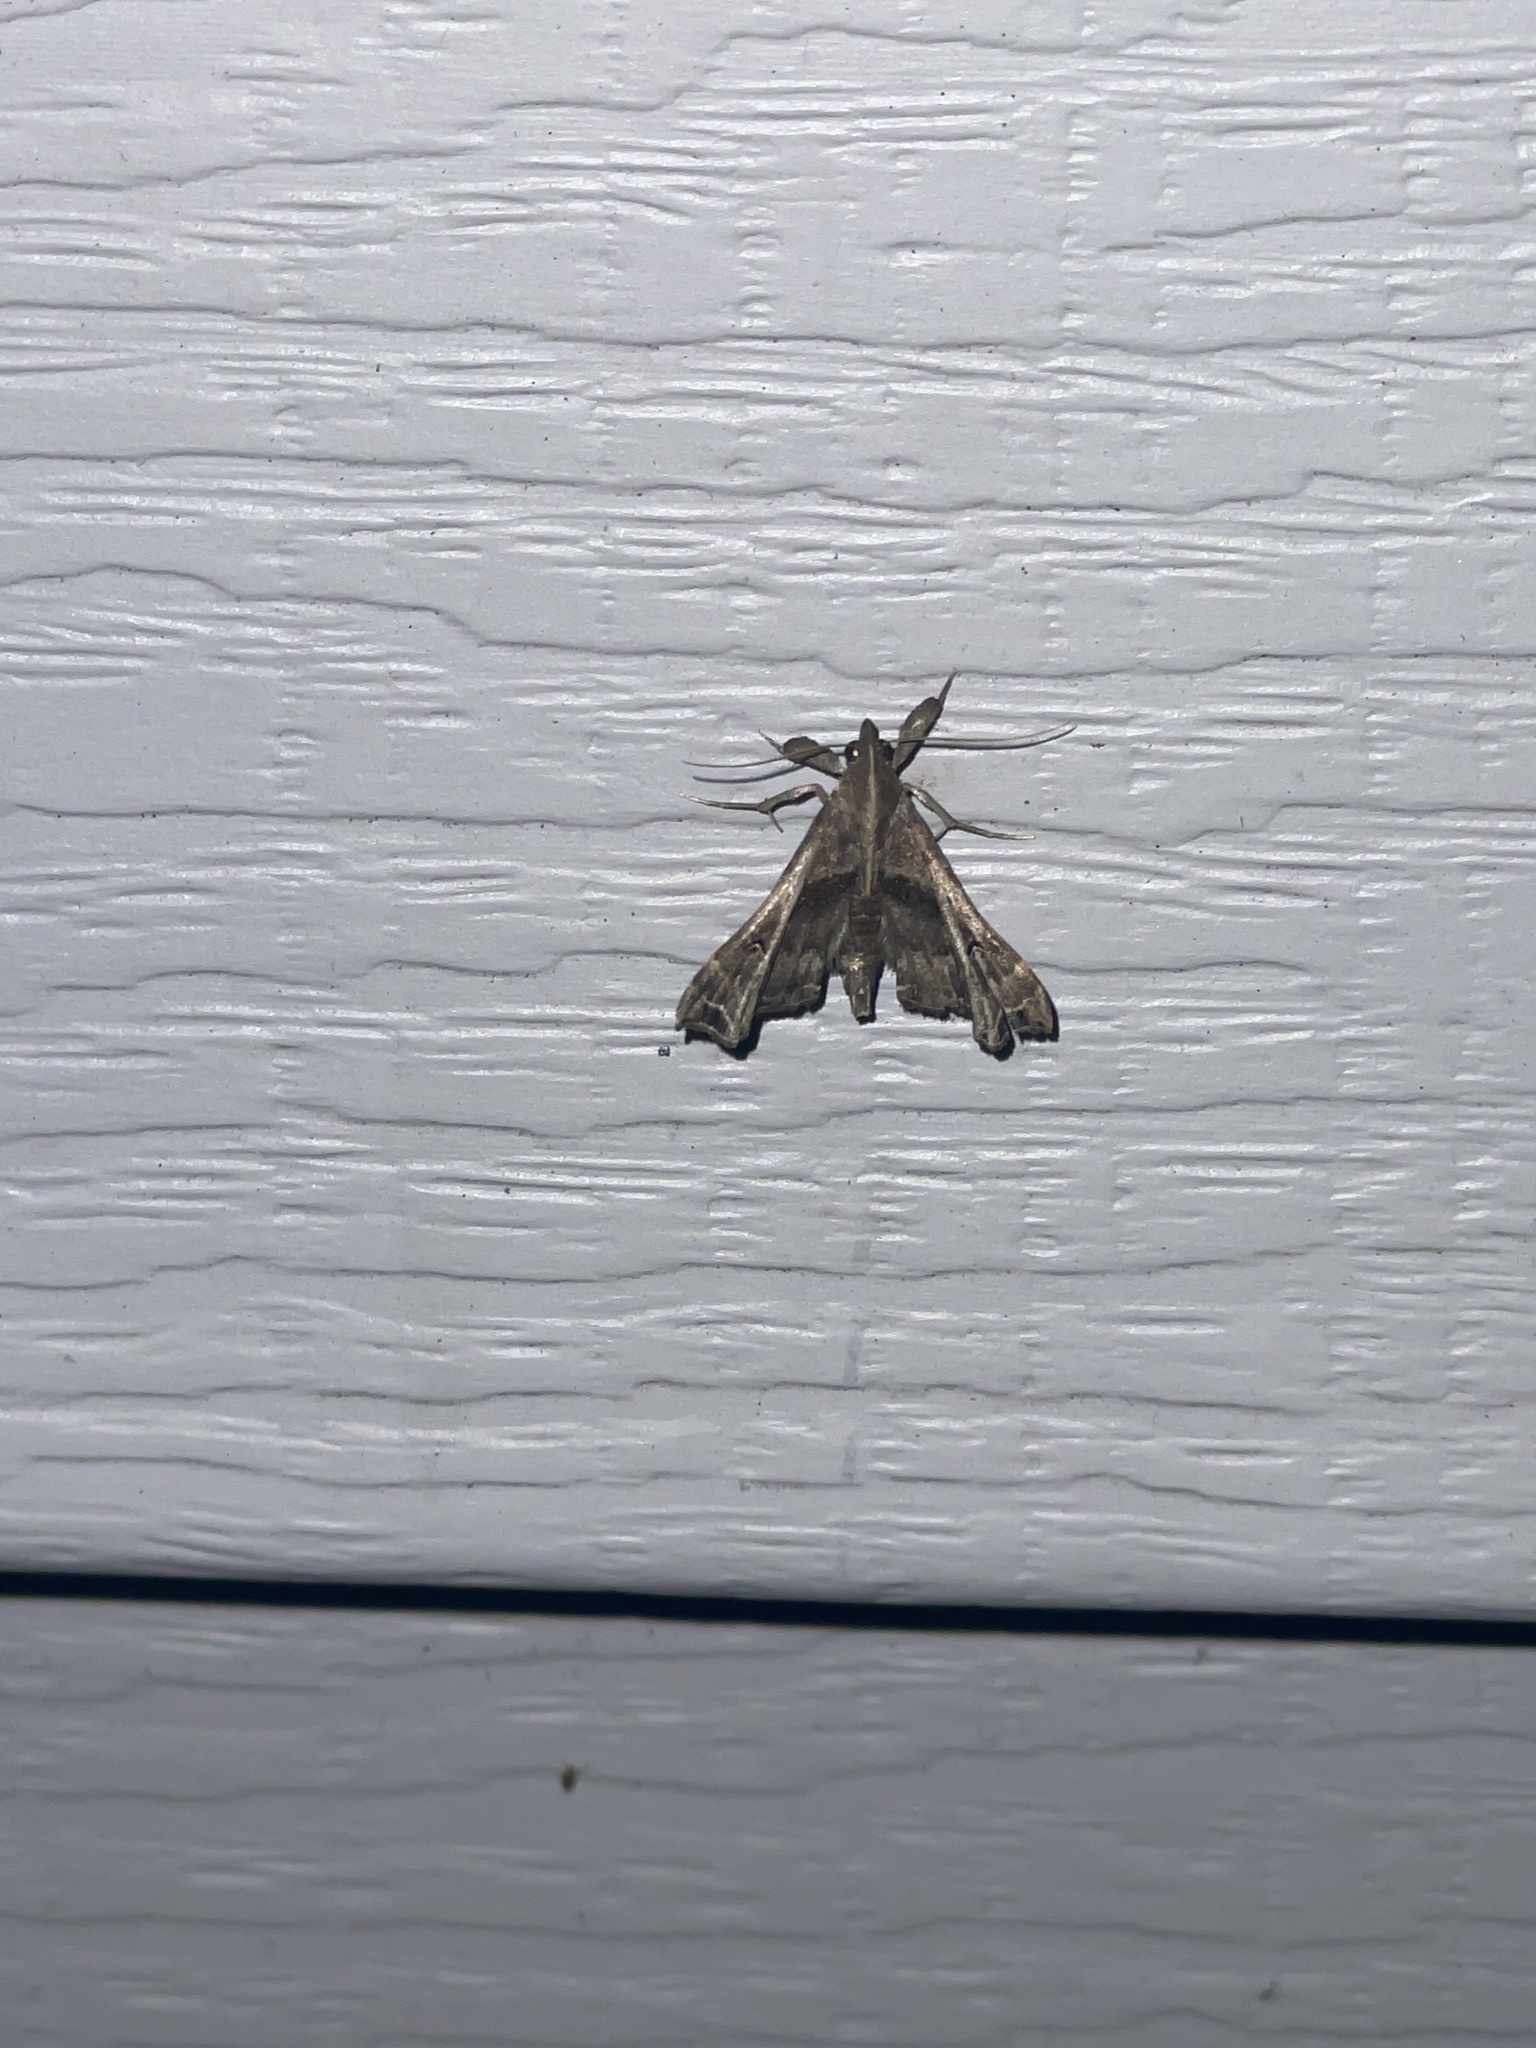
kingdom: Animalia
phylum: Arthropoda
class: Insecta
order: Lepidoptera
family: Erebidae
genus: Palthis
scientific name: Palthis asopialis
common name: Faint-spotted palthis moth
